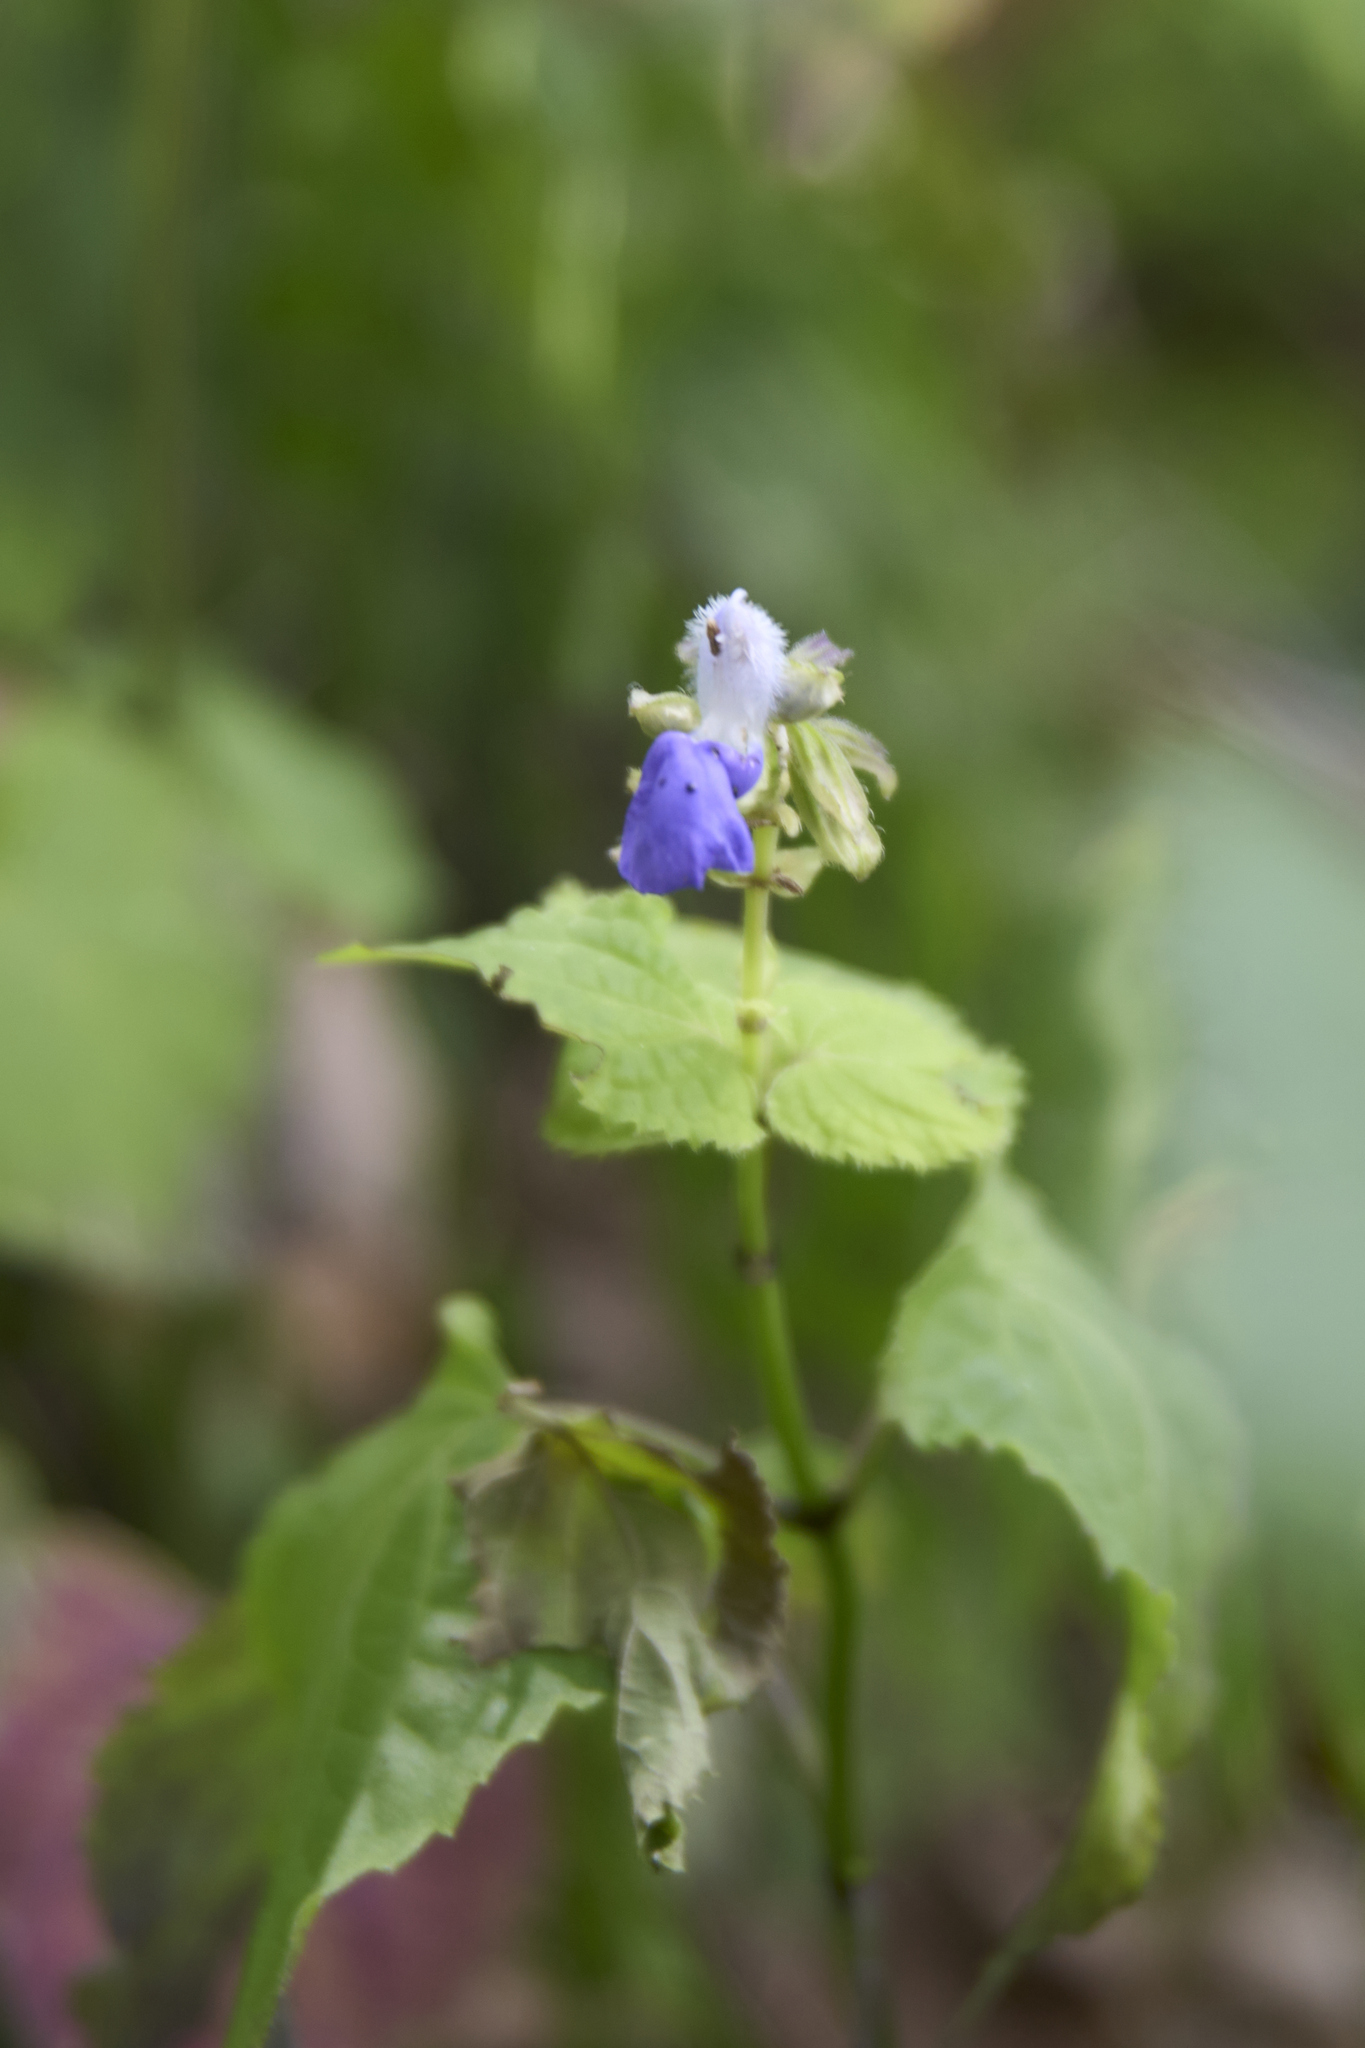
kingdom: Plantae
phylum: Tracheophyta
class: Magnoliopsida
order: Lamiales
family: Lamiaceae
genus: Salvia
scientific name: Salvia languidula
